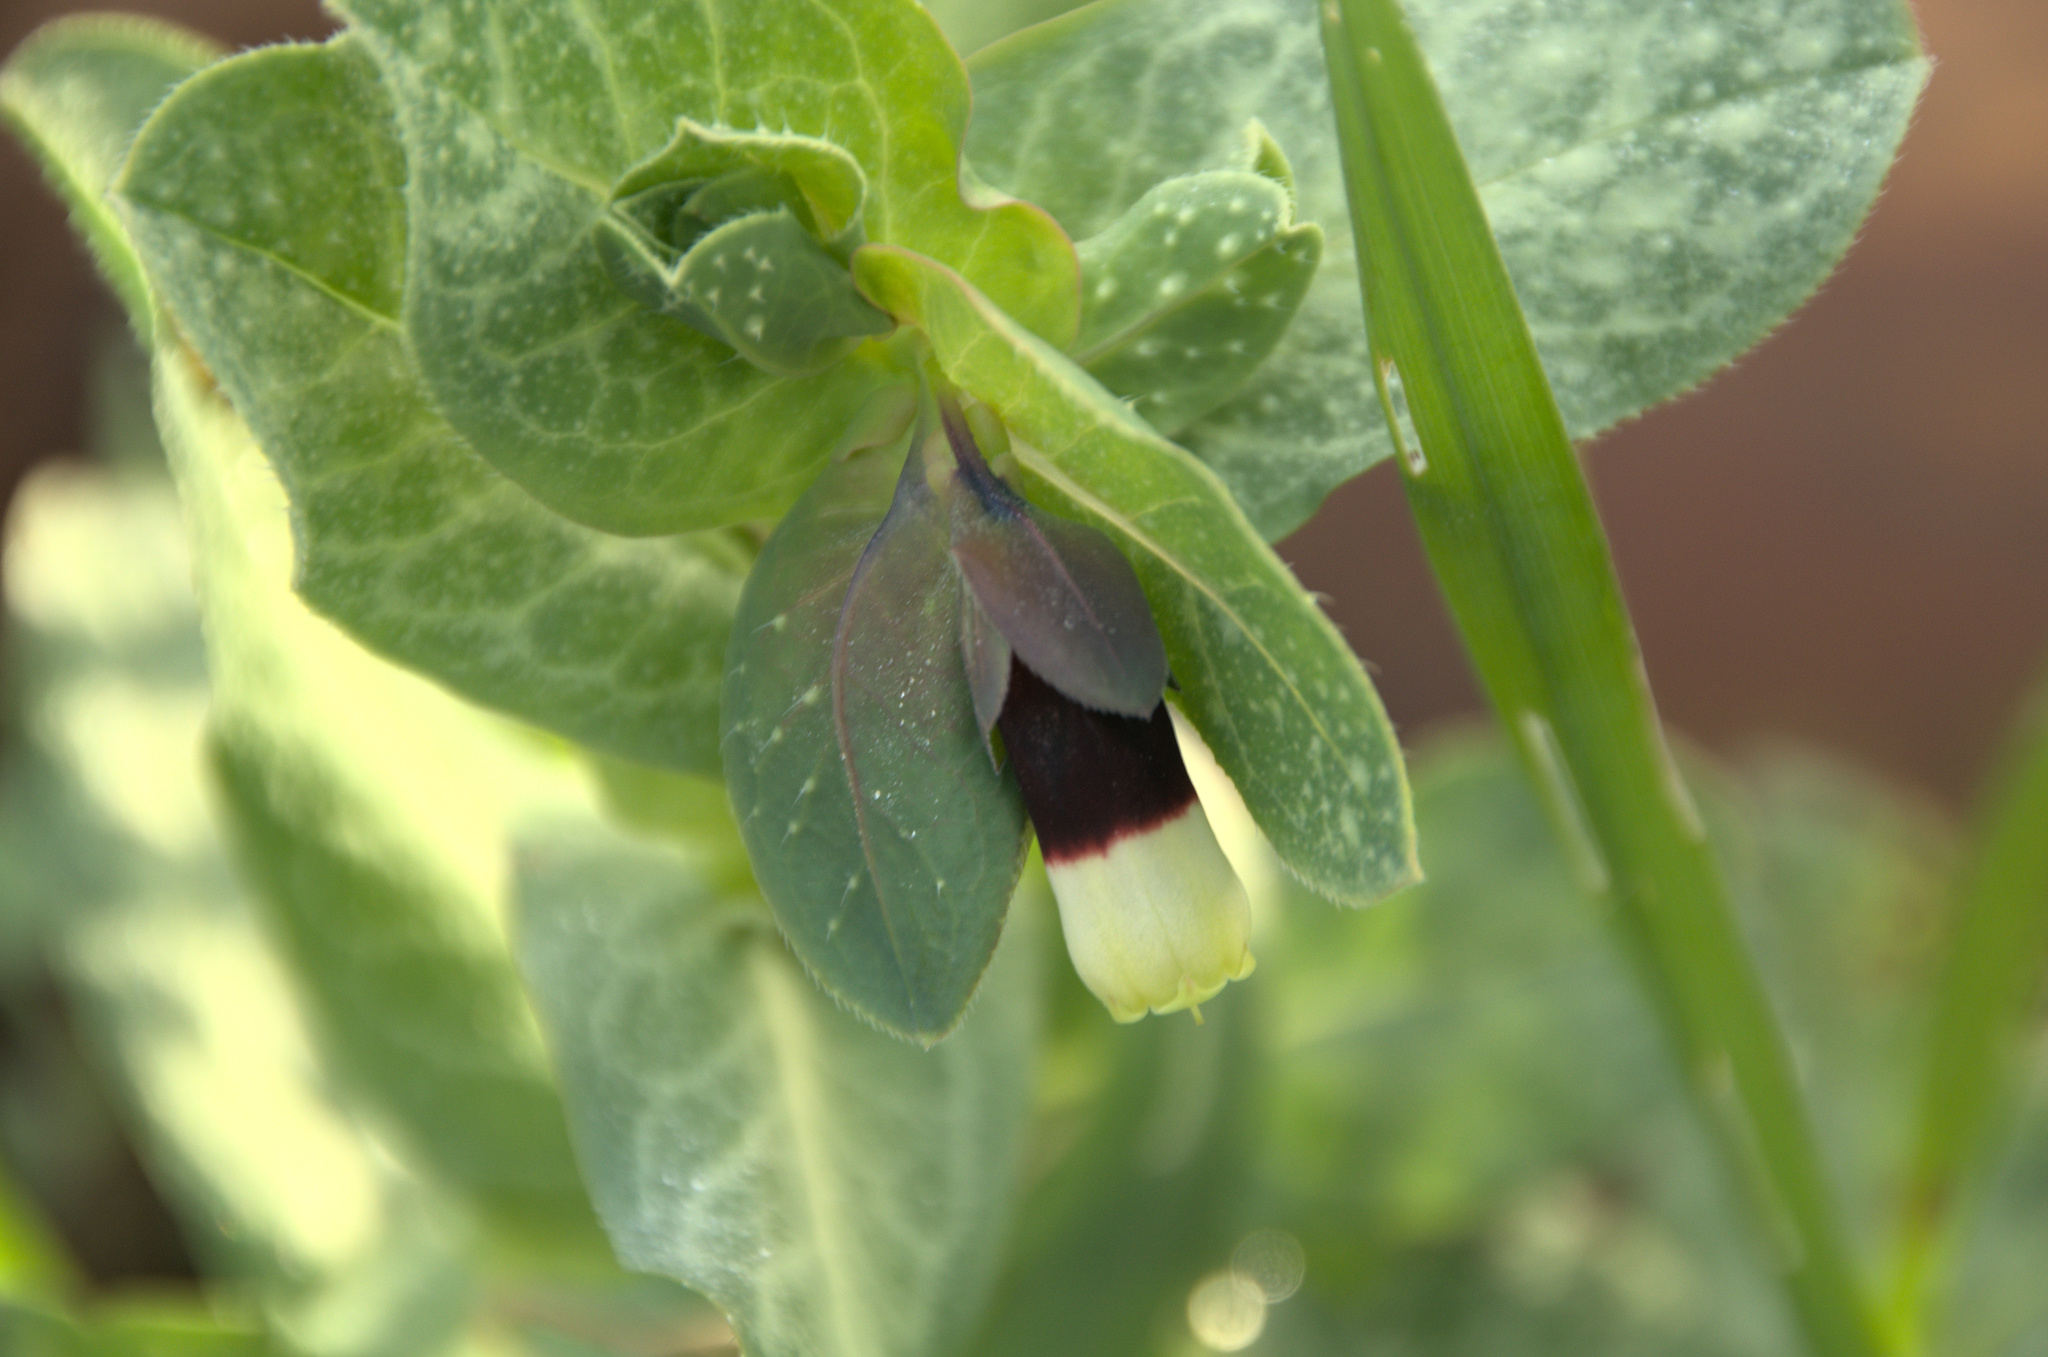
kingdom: Plantae
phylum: Tracheophyta
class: Magnoliopsida
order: Boraginales
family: Boraginaceae
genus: Cerinthe
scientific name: Cerinthe major
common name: Greater honeywort
